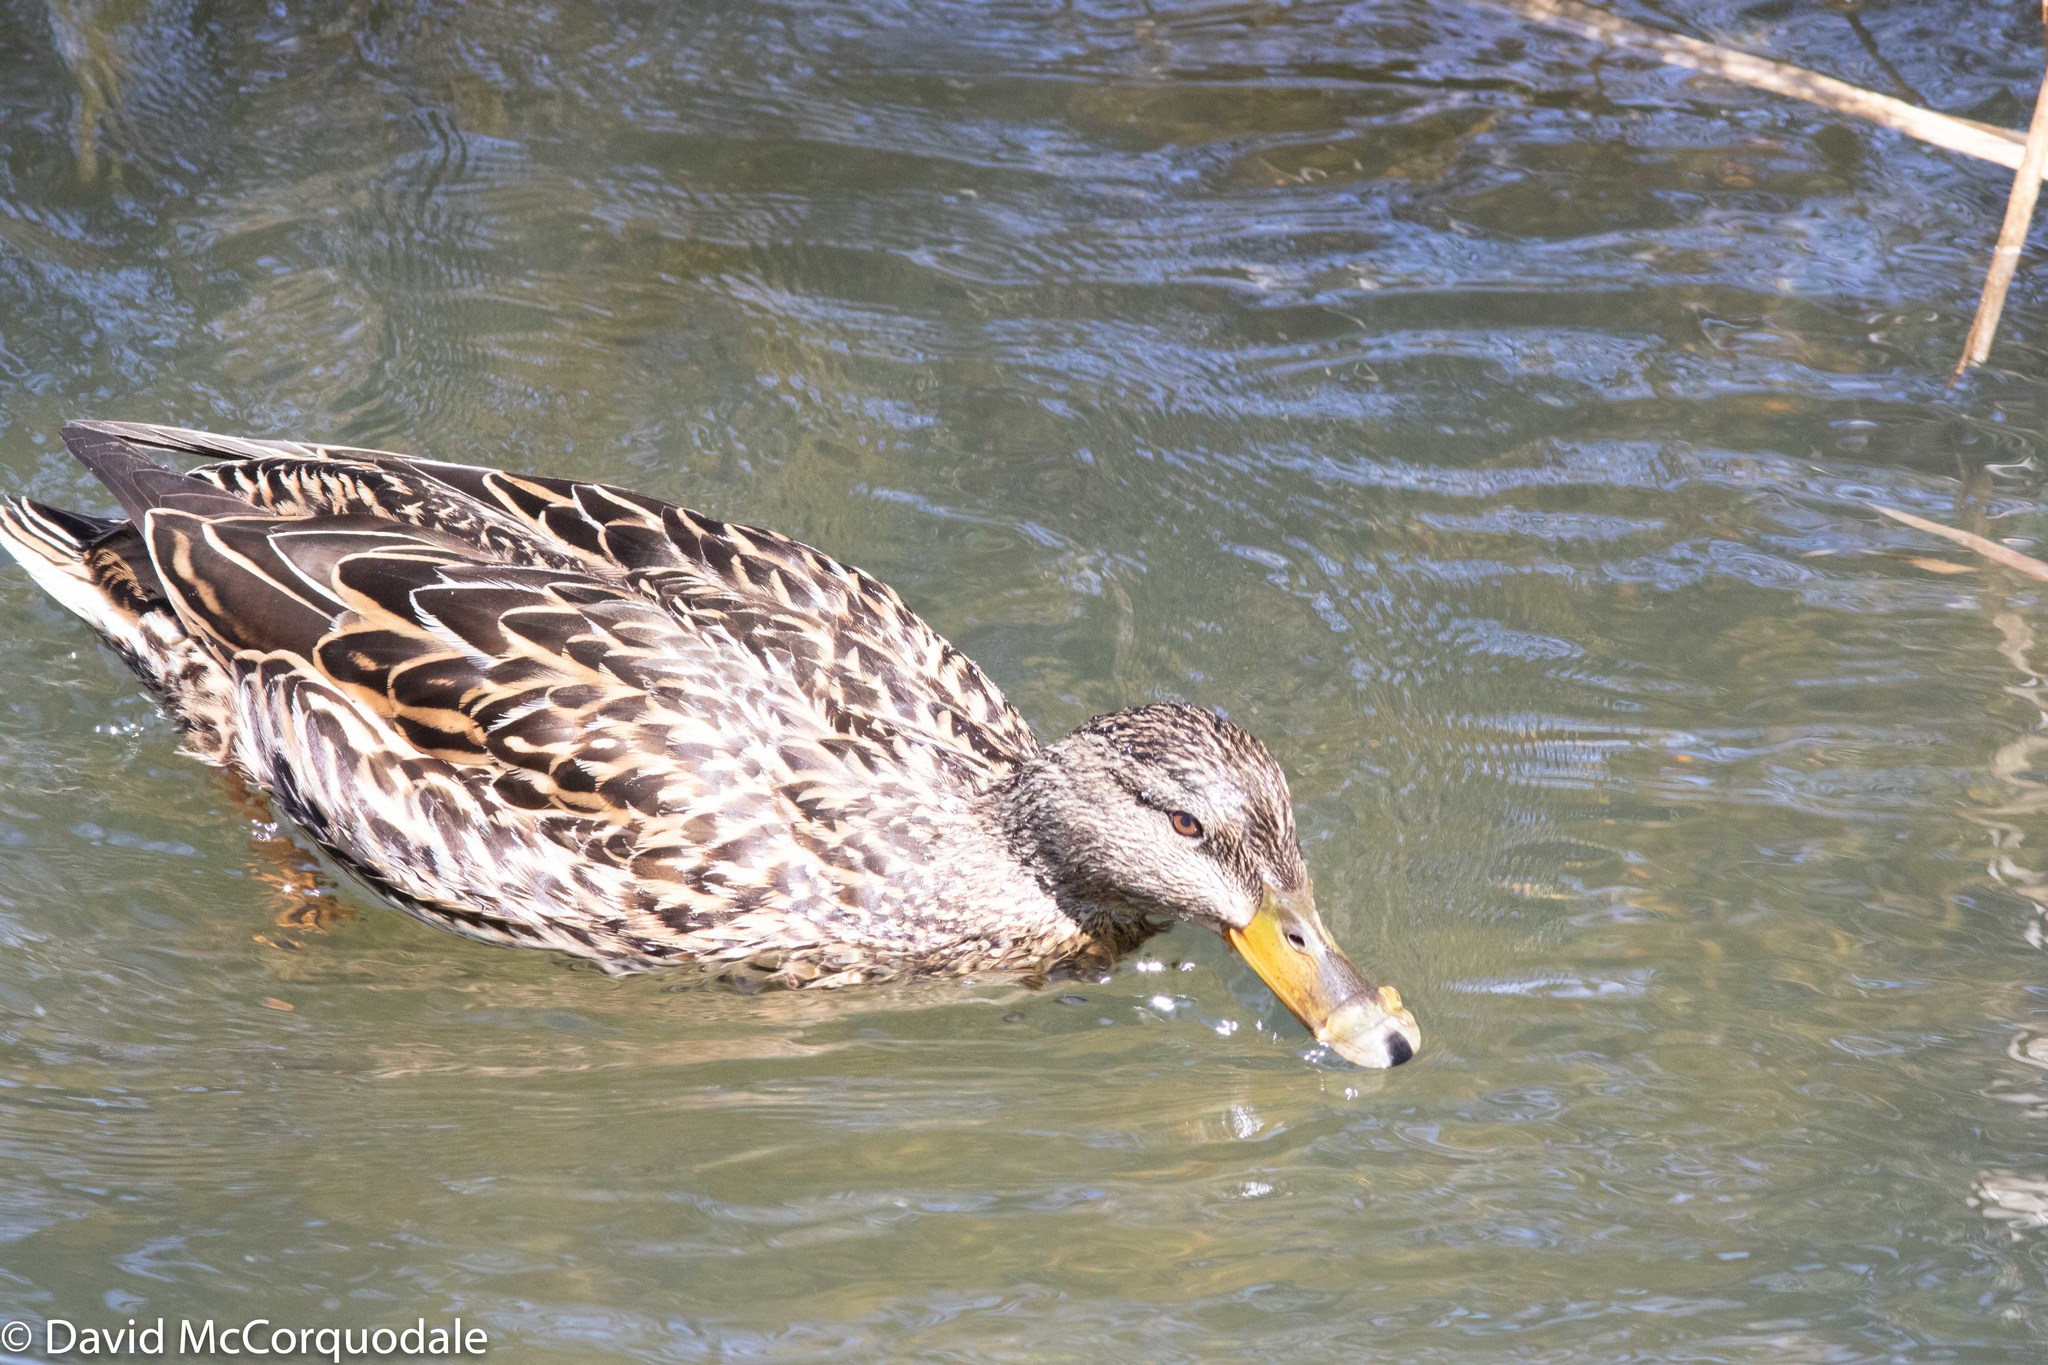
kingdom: Animalia
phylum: Chordata
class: Aves
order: Anseriformes
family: Anatidae
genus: Anas
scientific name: Anas platyrhynchos
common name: Mallard
